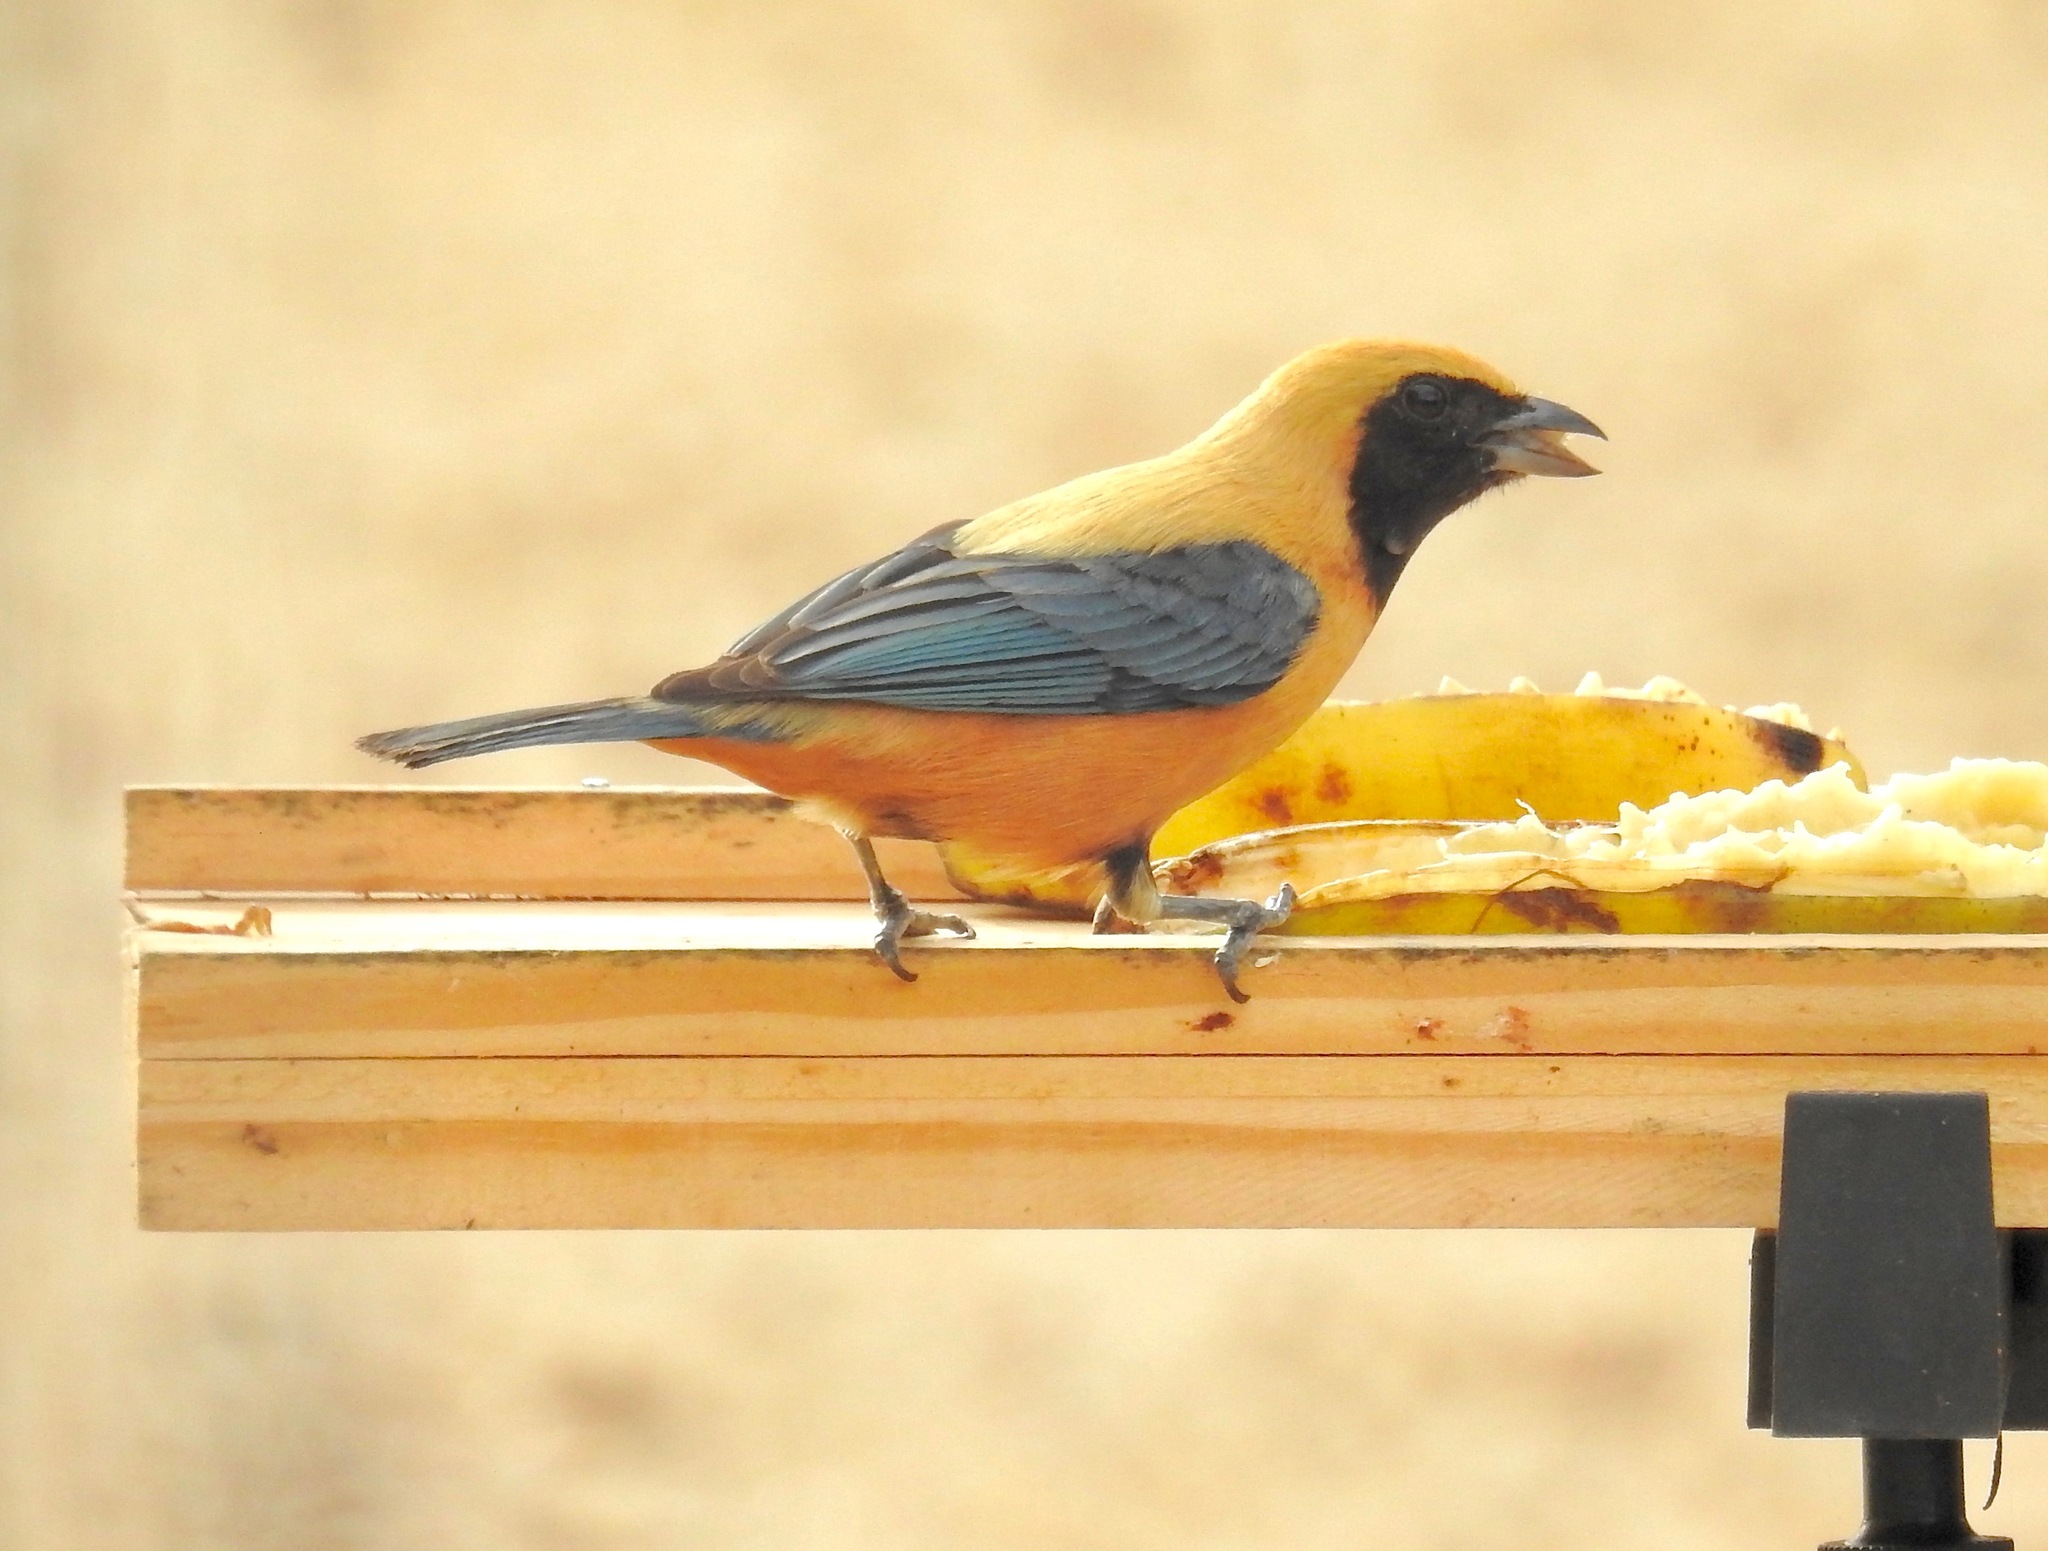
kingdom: Animalia
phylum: Chordata
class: Aves
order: Passeriformes
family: Thraupidae
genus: Stilpnia
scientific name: Stilpnia cayana
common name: Burnished-buff tanager
